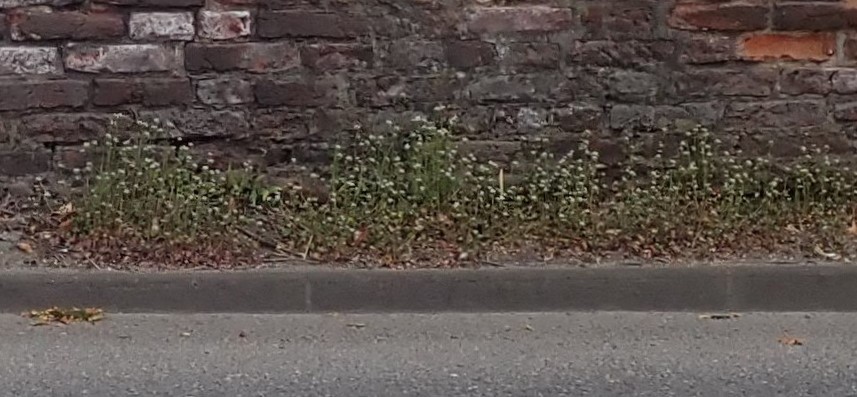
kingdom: Plantae
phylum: Tracheophyta
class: Magnoliopsida
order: Brassicales
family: Brassicaceae
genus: Cochlearia
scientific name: Cochlearia danica
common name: Early scurvygrass
